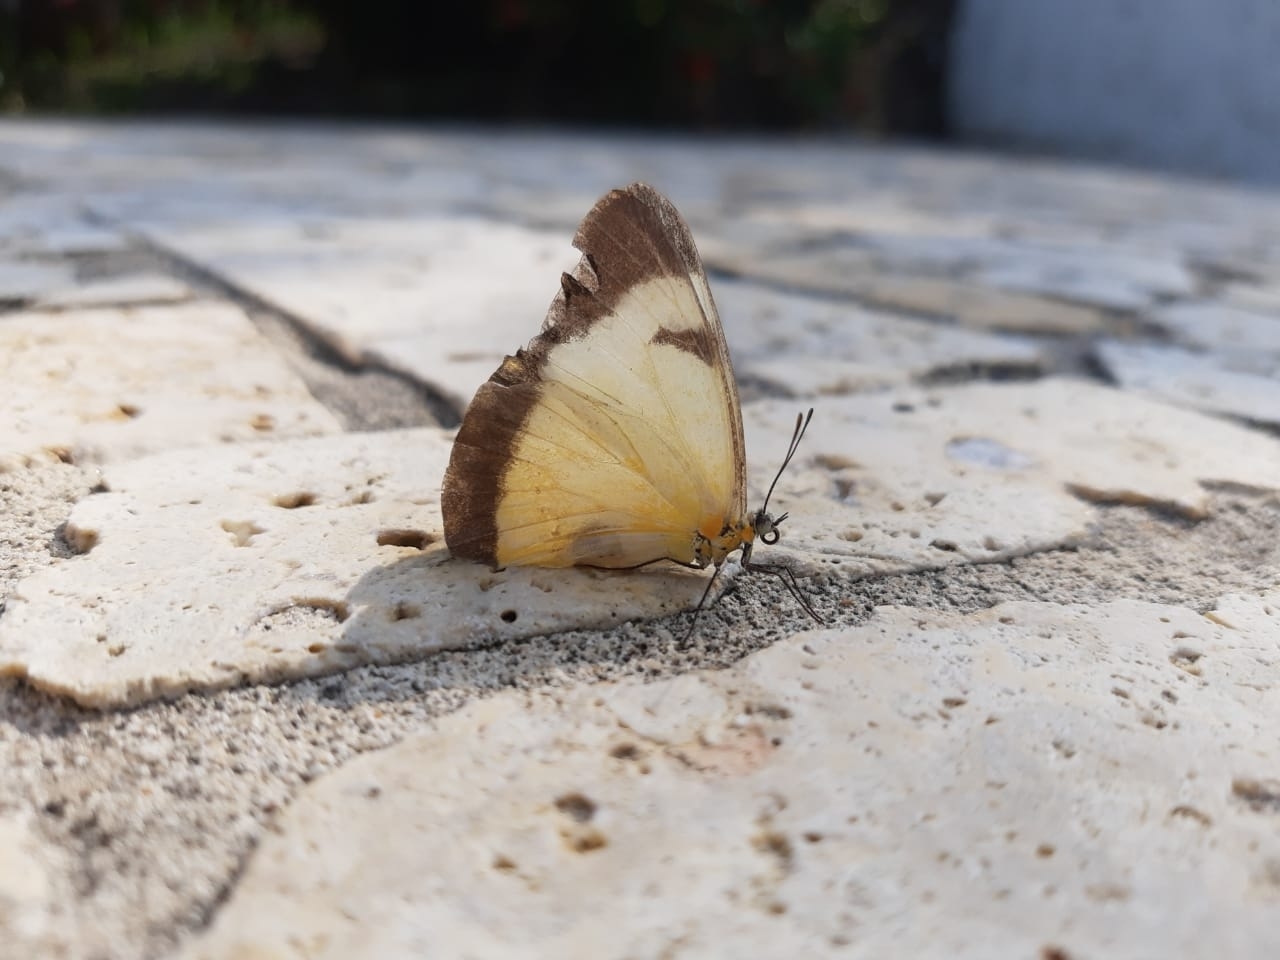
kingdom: Animalia
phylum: Arthropoda
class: Insecta
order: Lepidoptera
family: Pieridae
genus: Melete
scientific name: Melete lycimnia
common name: Common melwhite
